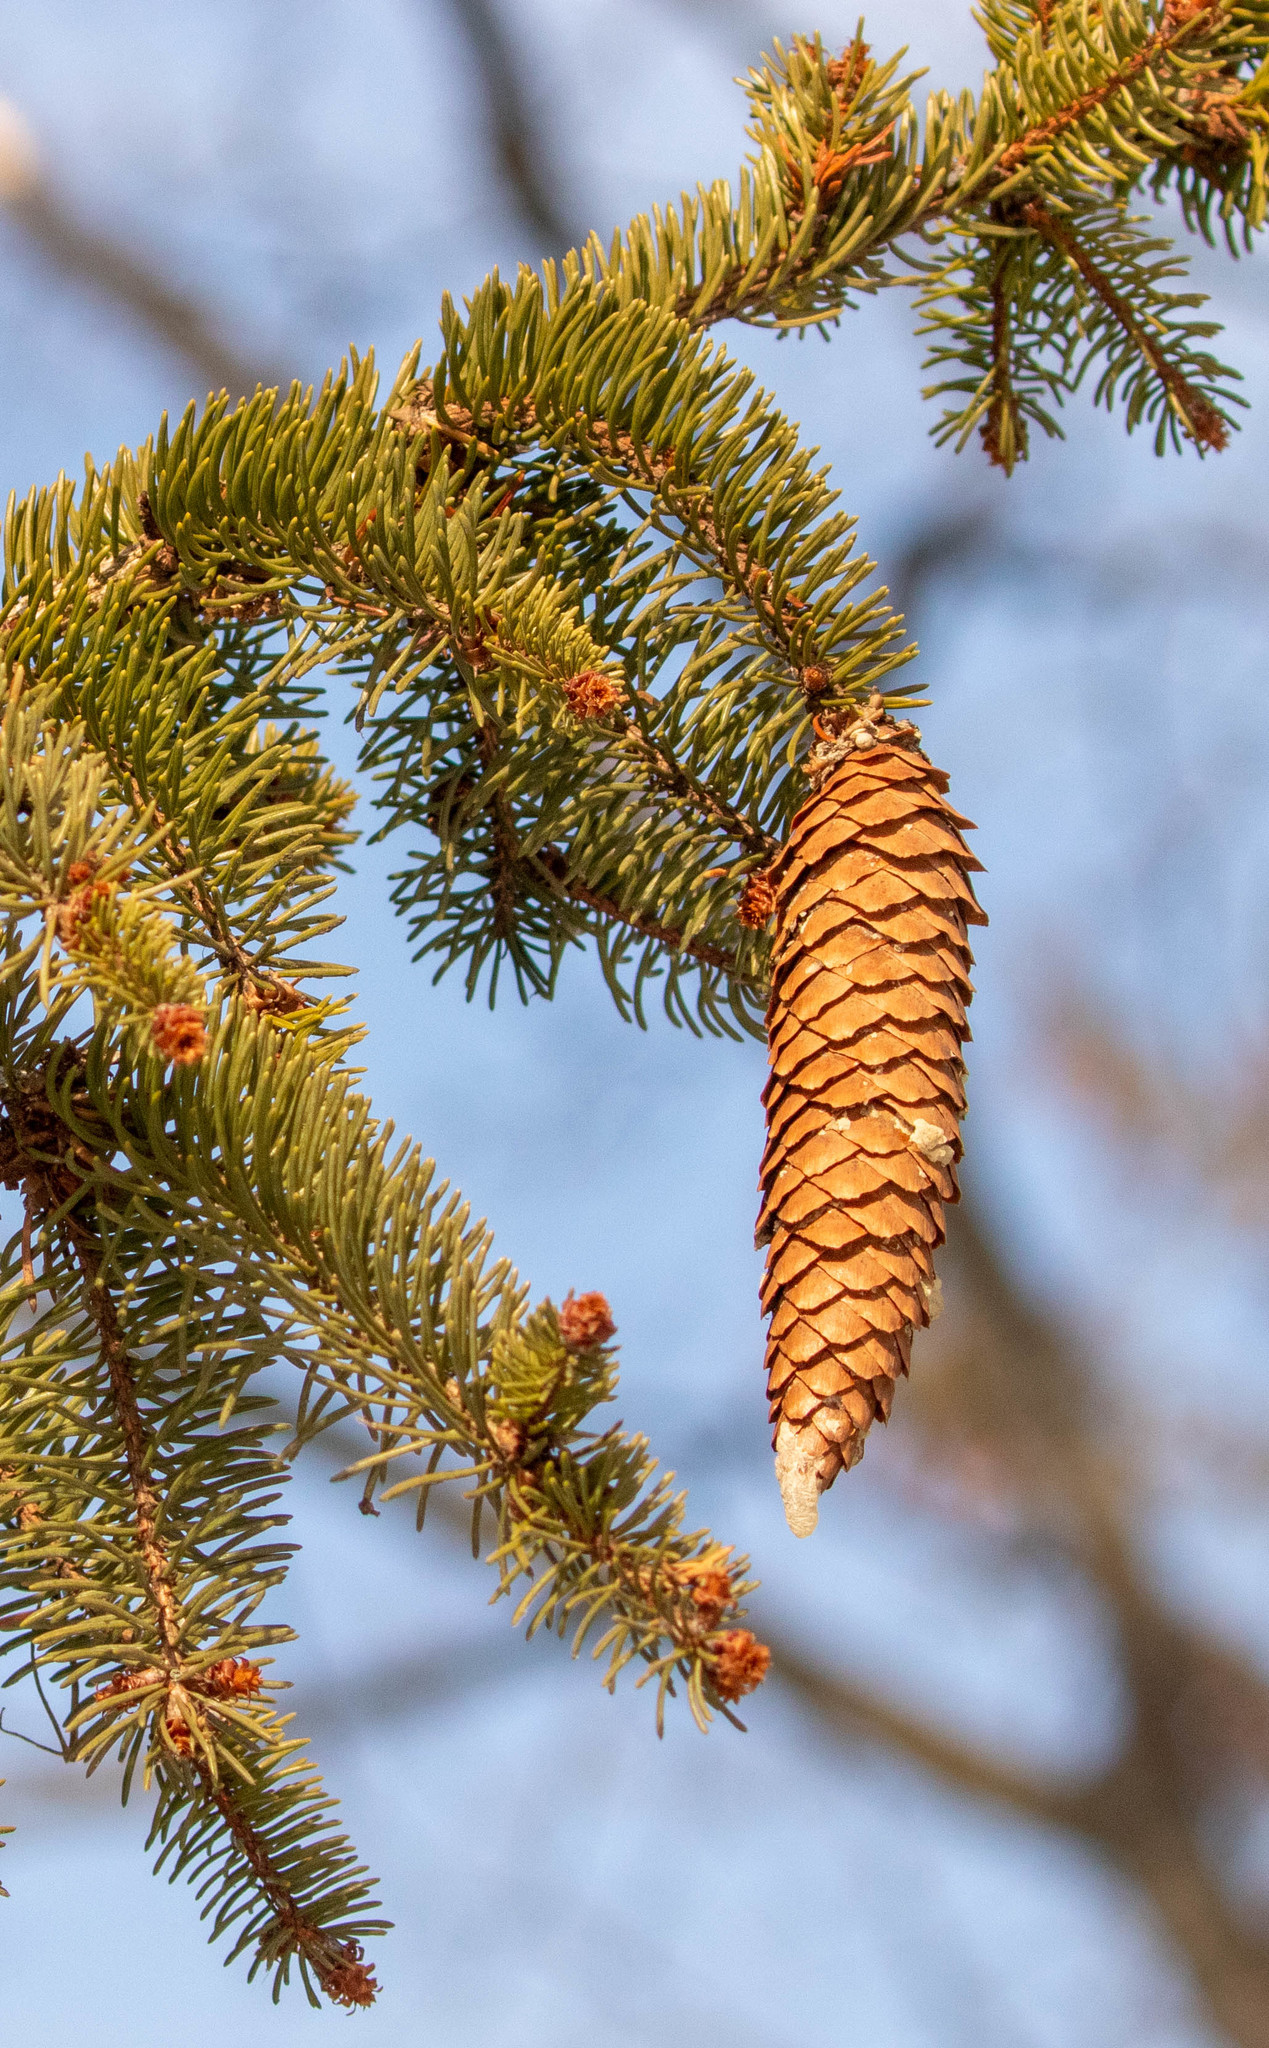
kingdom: Plantae
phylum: Tracheophyta
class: Pinopsida
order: Pinales
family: Pinaceae
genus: Picea
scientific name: Picea abies
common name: Norway spruce
